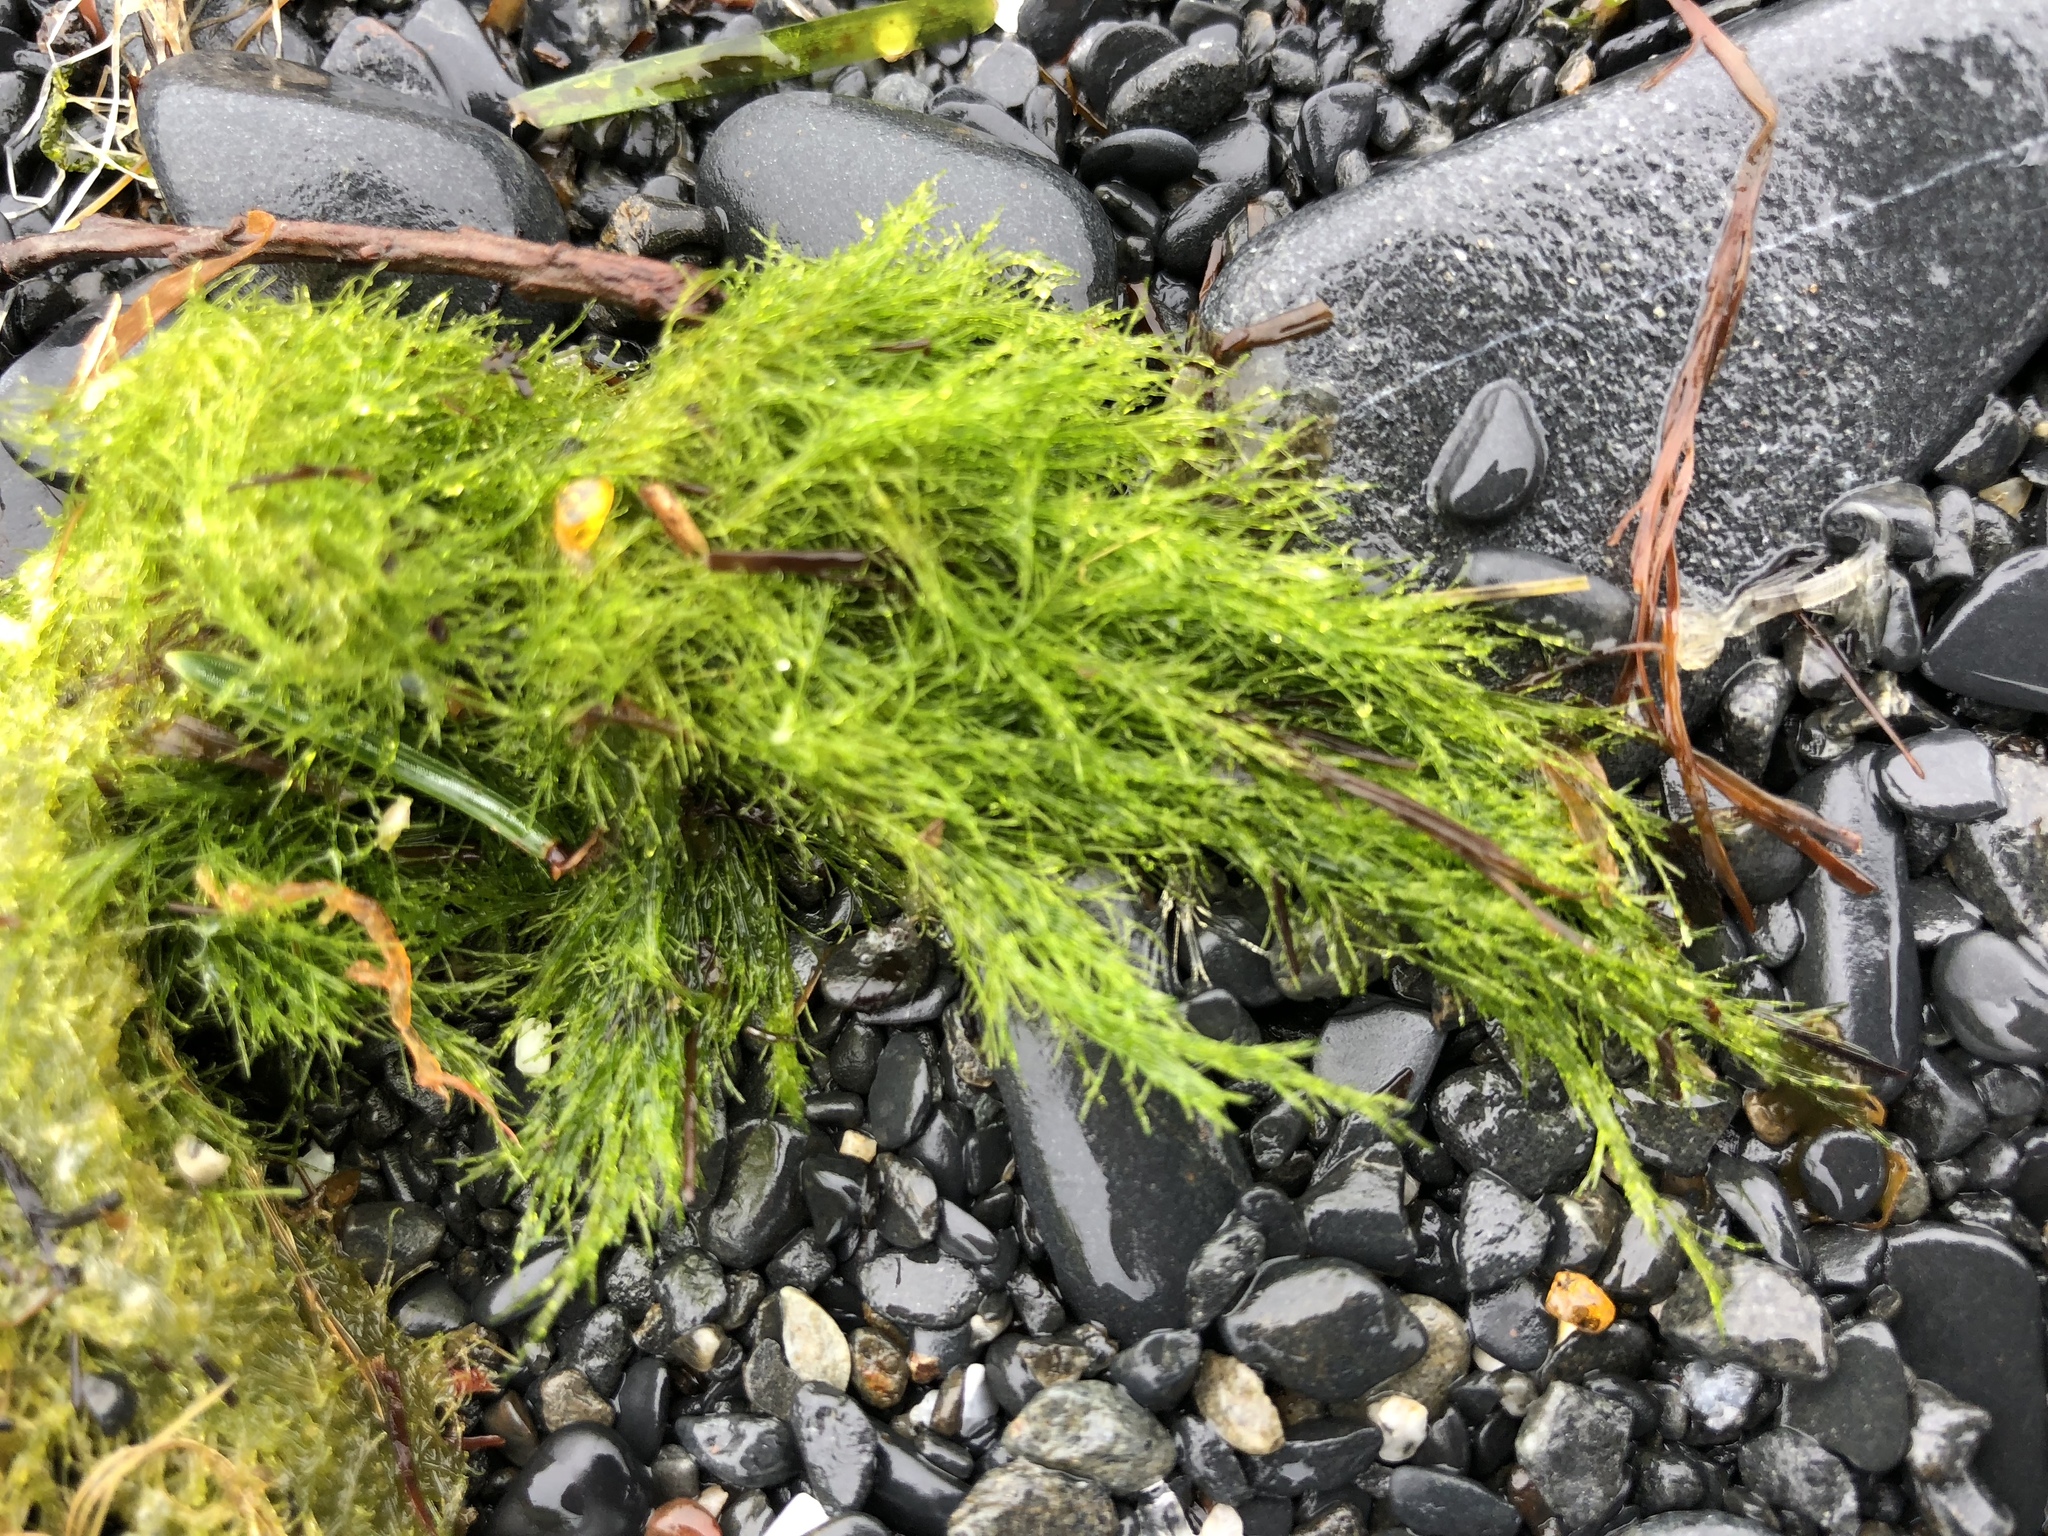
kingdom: Plantae
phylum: Chlorophyta
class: Ulvophyceae
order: Ulotrichales
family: Ulotrichaceae
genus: Acrosiphonia
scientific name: Acrosiphonia
